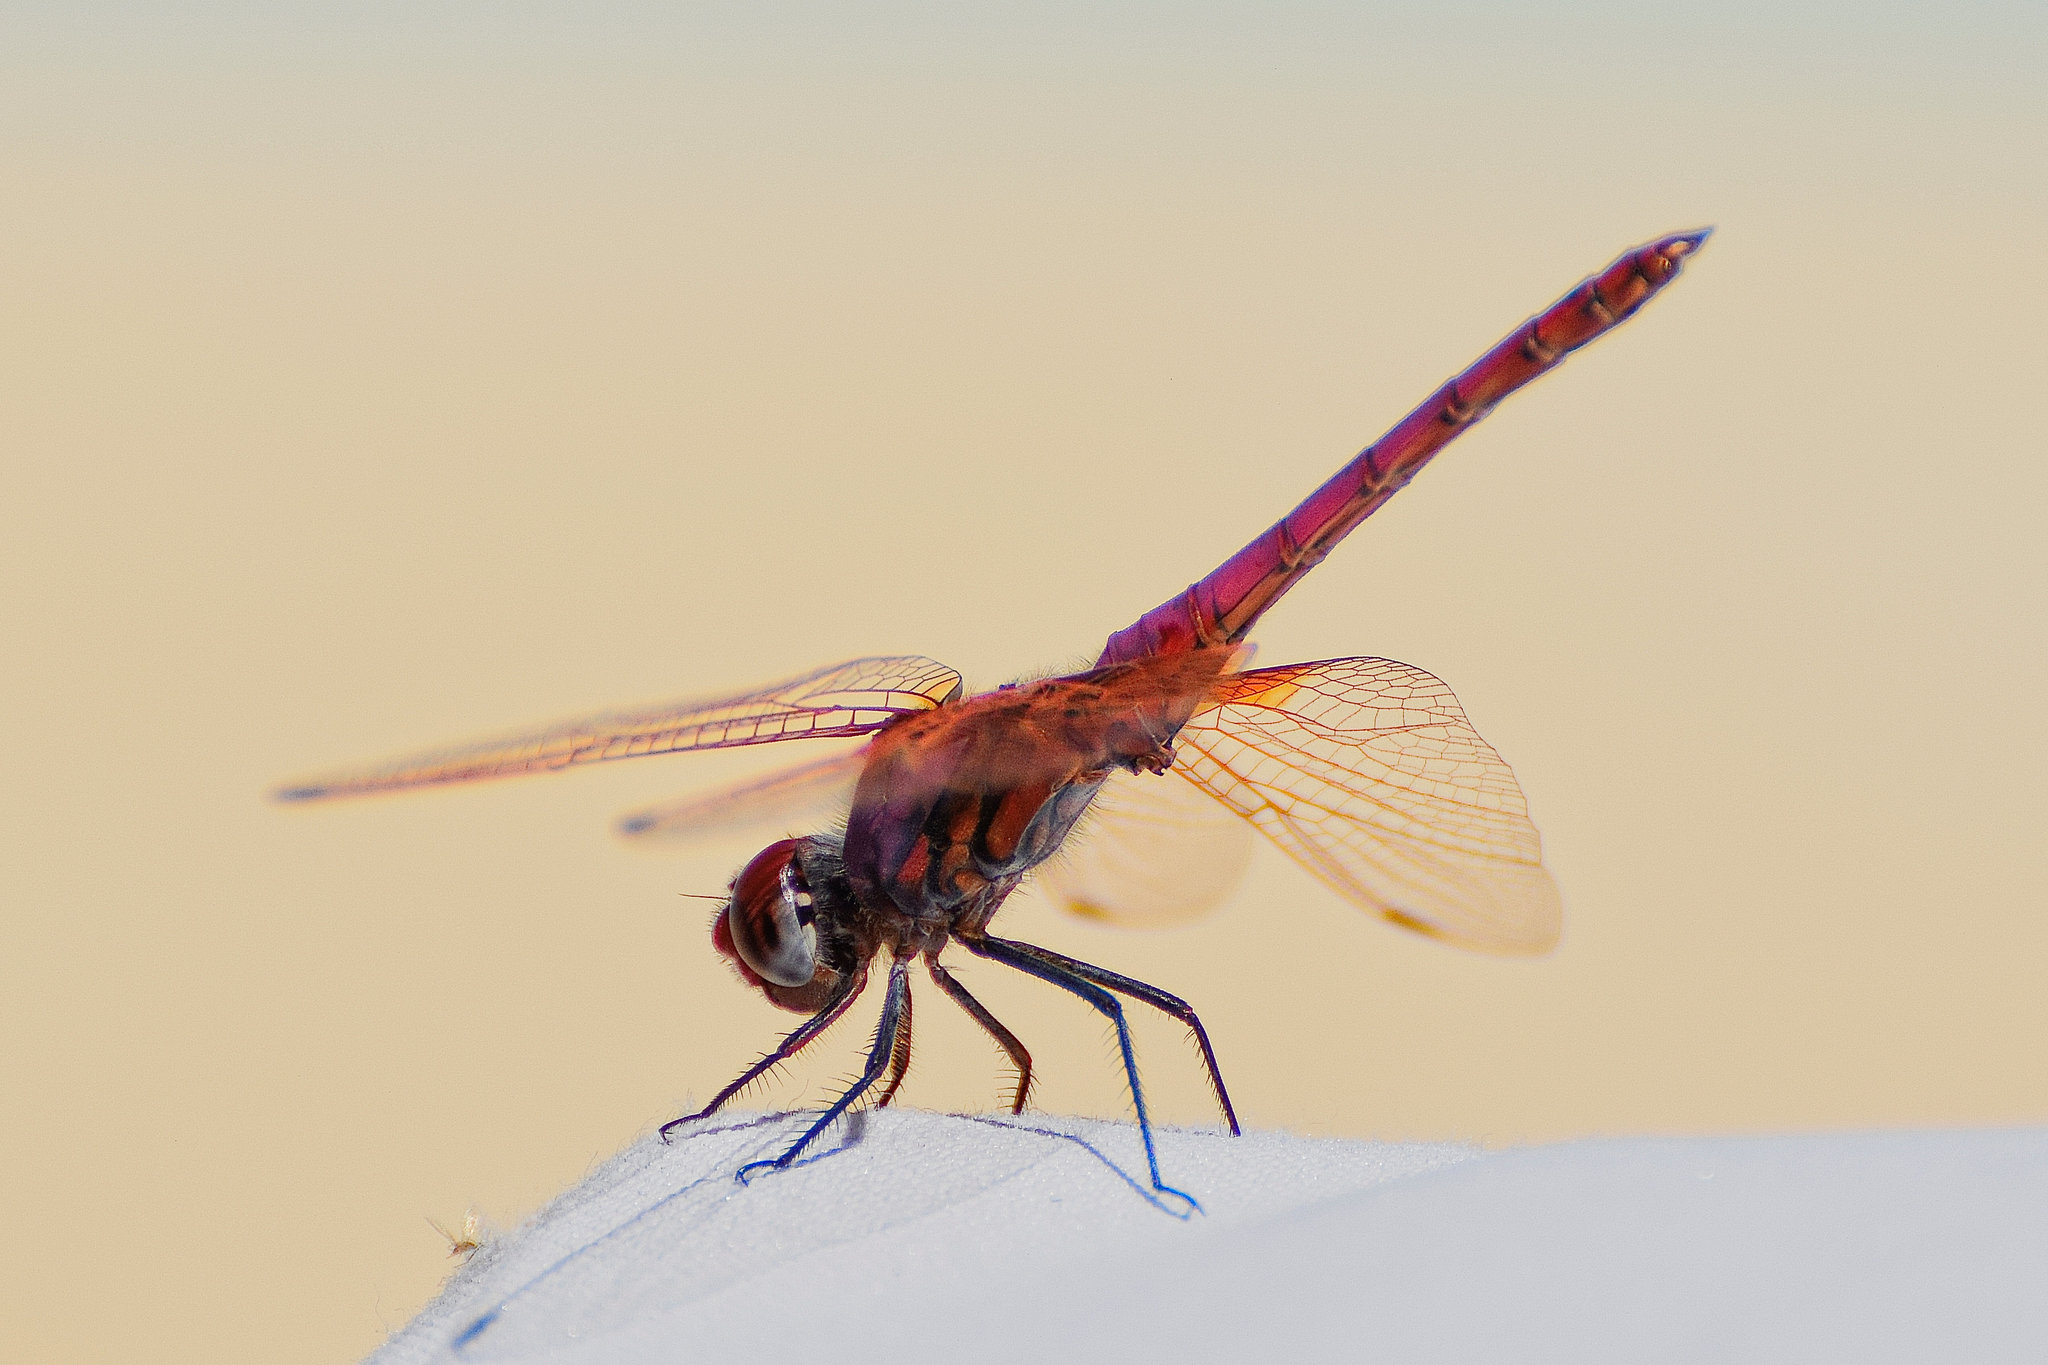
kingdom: Animalia
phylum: Arthropoda
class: Insecta
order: Odonata
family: Libellulidae
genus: Trithemis
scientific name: Trithemis annulata
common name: Violet dropwing
